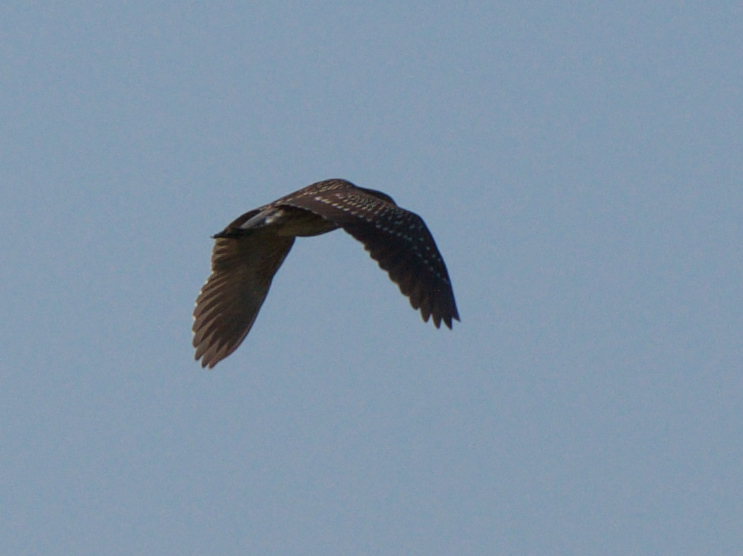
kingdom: Animalia
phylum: Chordata
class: Aves
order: Pelecaniformes
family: Ardeidae
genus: Nycticorax
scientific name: Nycticorax nycticorax
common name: Black-crowned night heron
